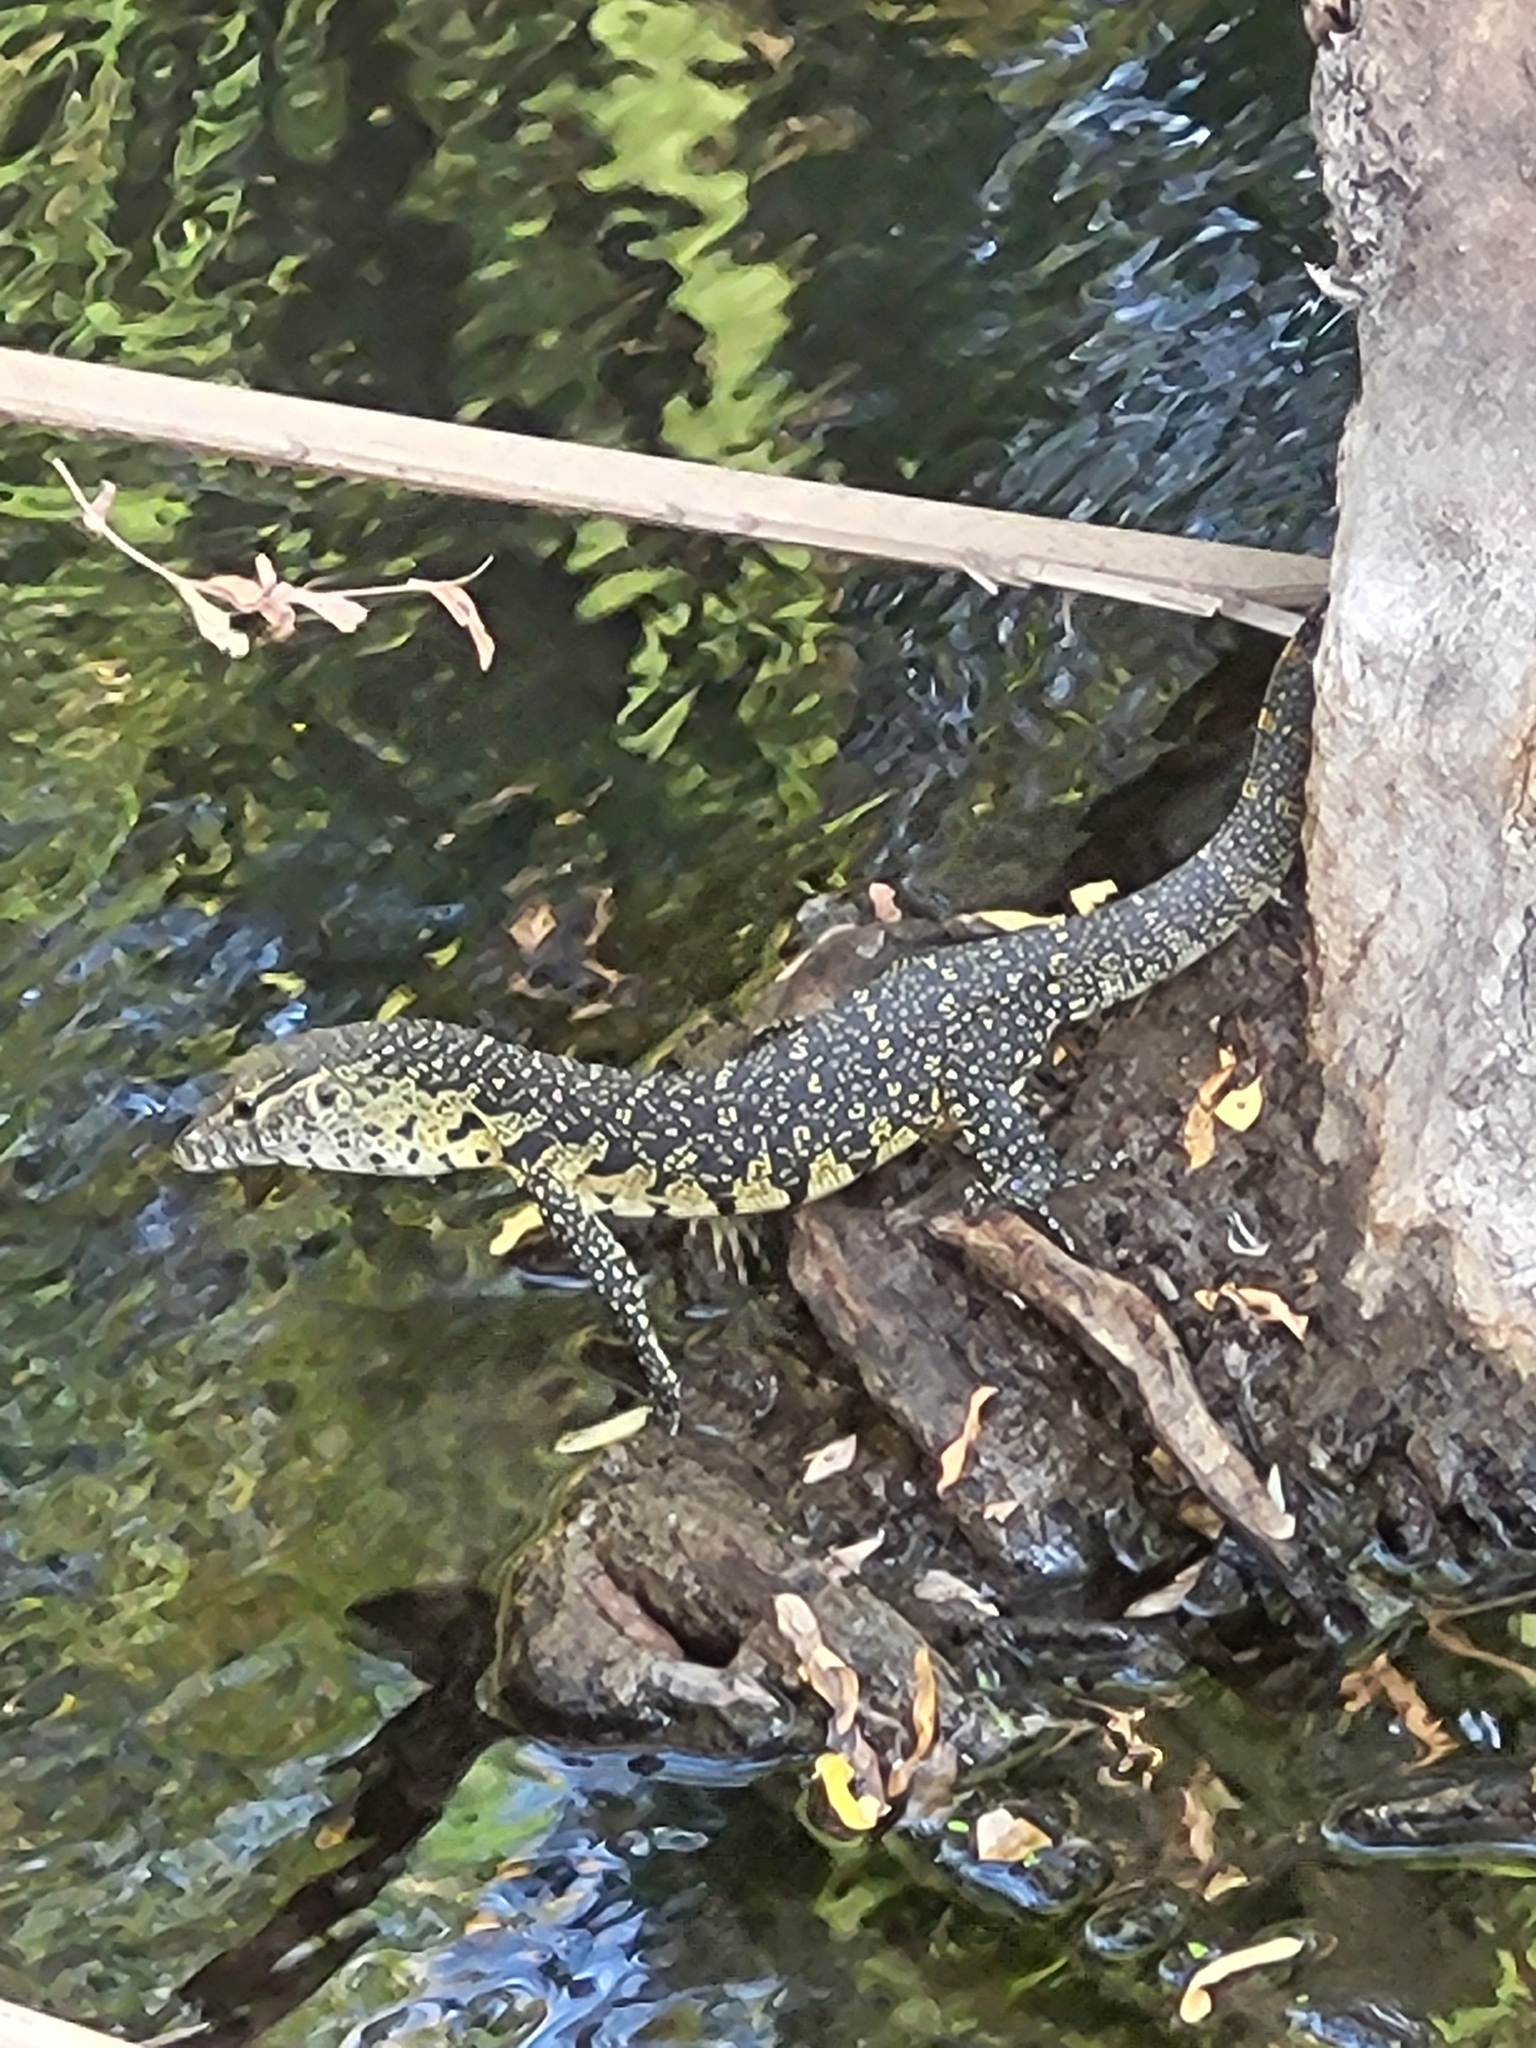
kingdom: Animalia
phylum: Chordata
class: Squamata
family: Varanidae
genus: Varanus
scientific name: Varanus niloticus
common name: Nile monitor
